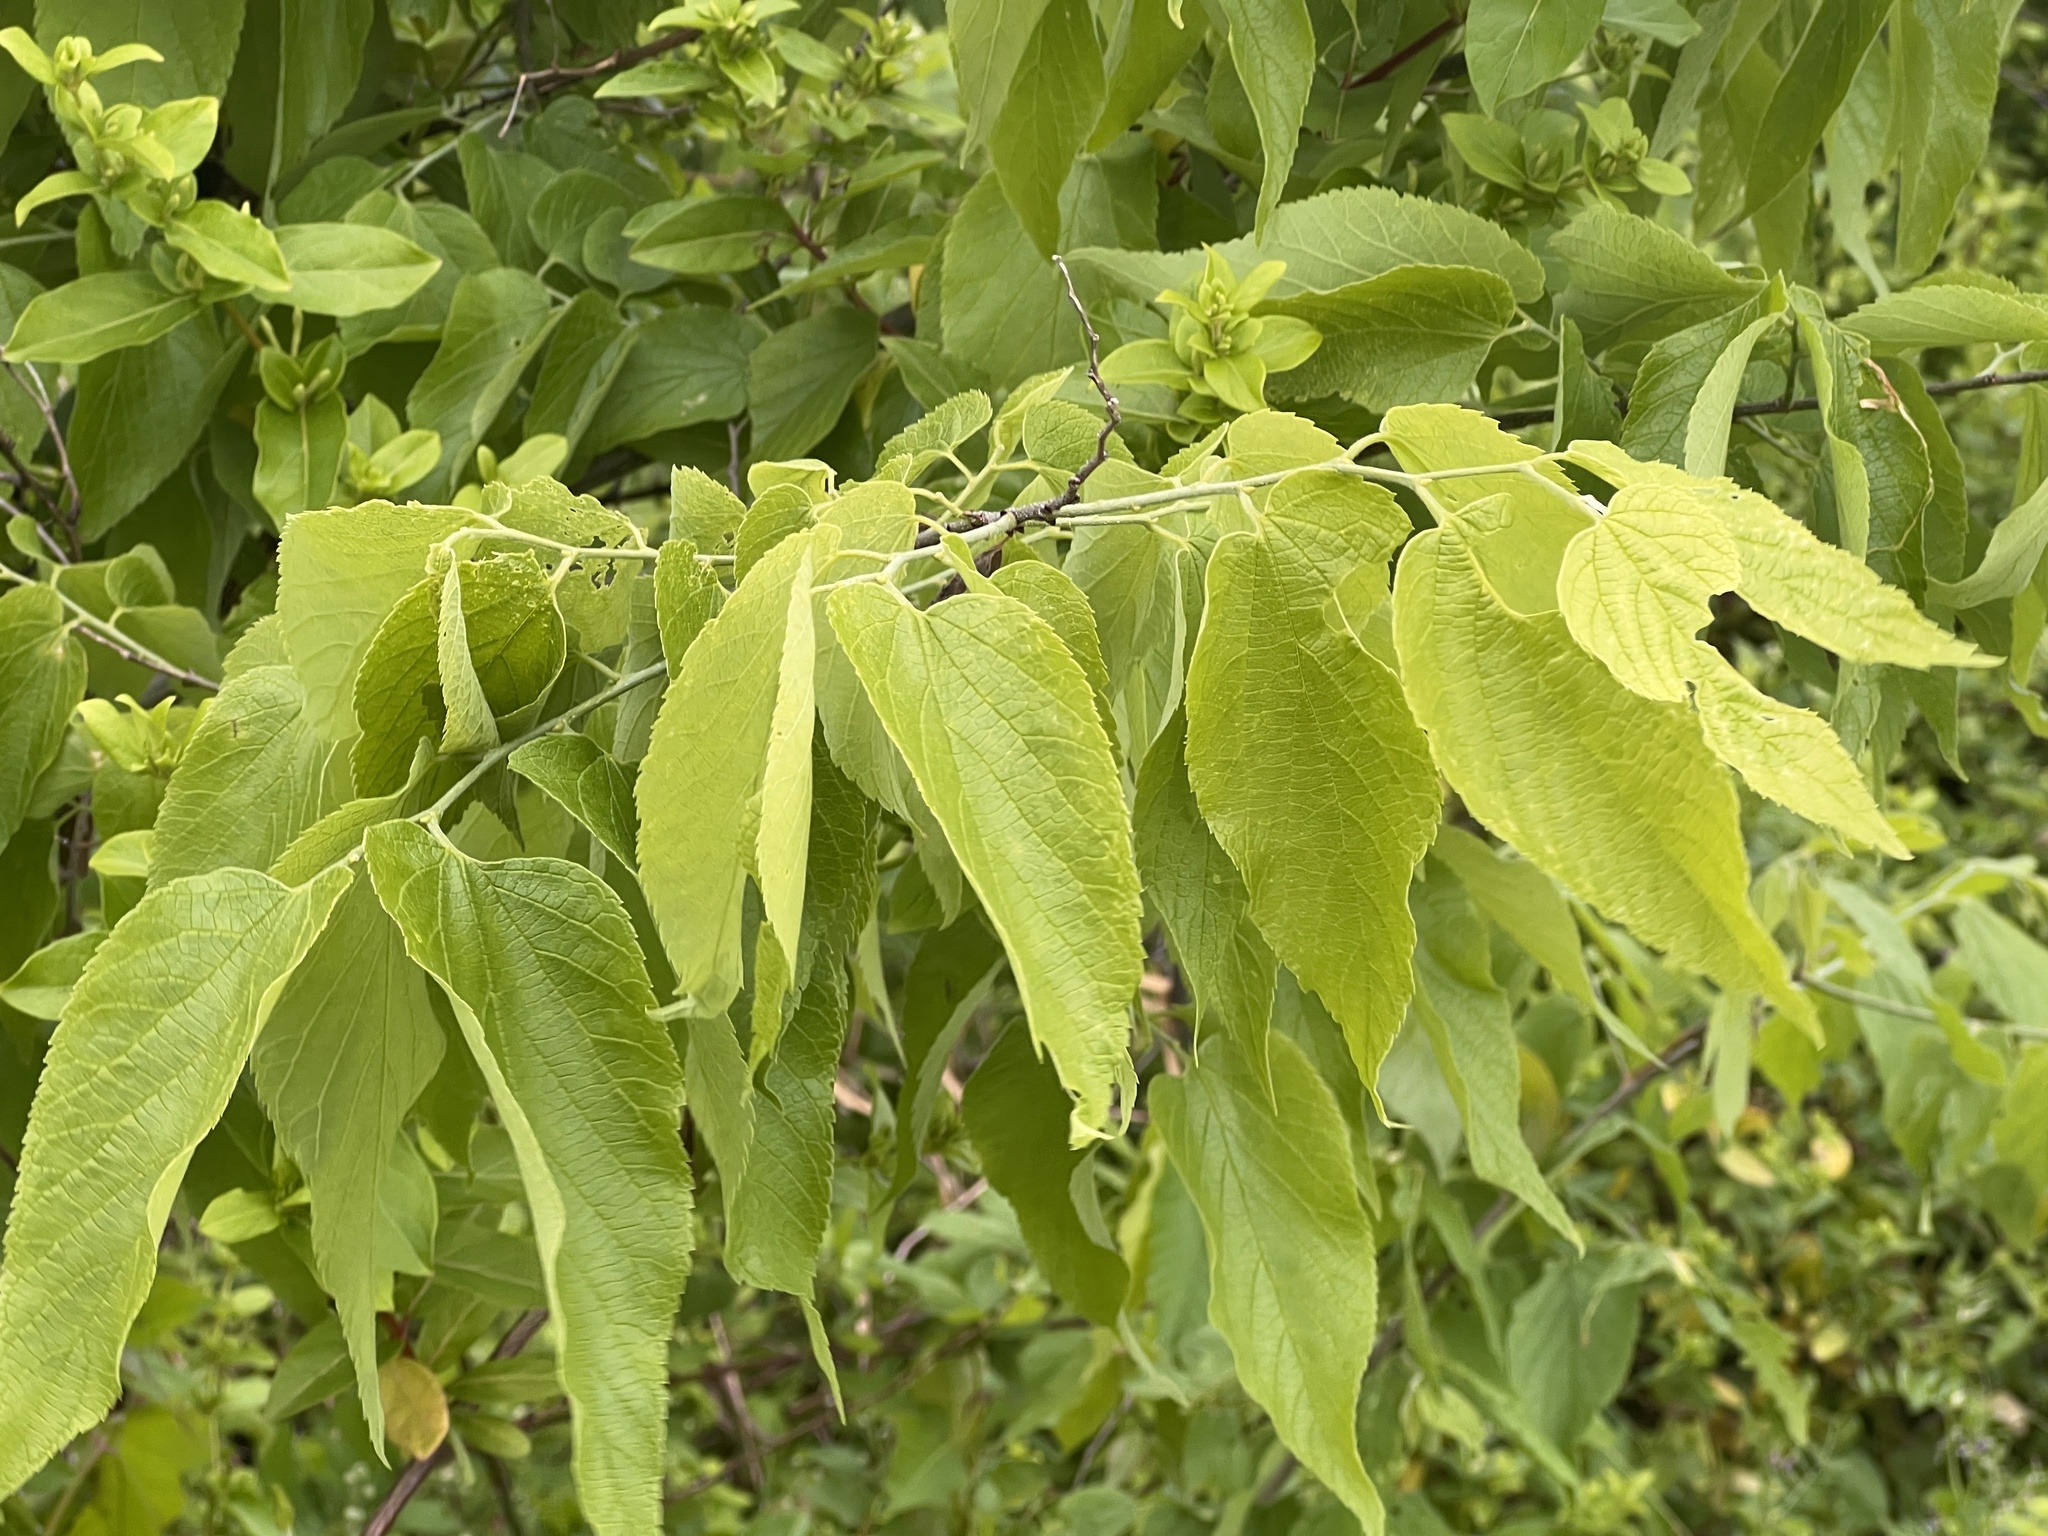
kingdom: Plantae
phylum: Tracheophyta
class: Magnoliopsida
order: Rosales
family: Cannabaceae
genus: Celtis
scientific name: Celtis occidentalis
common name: Common hackberry
